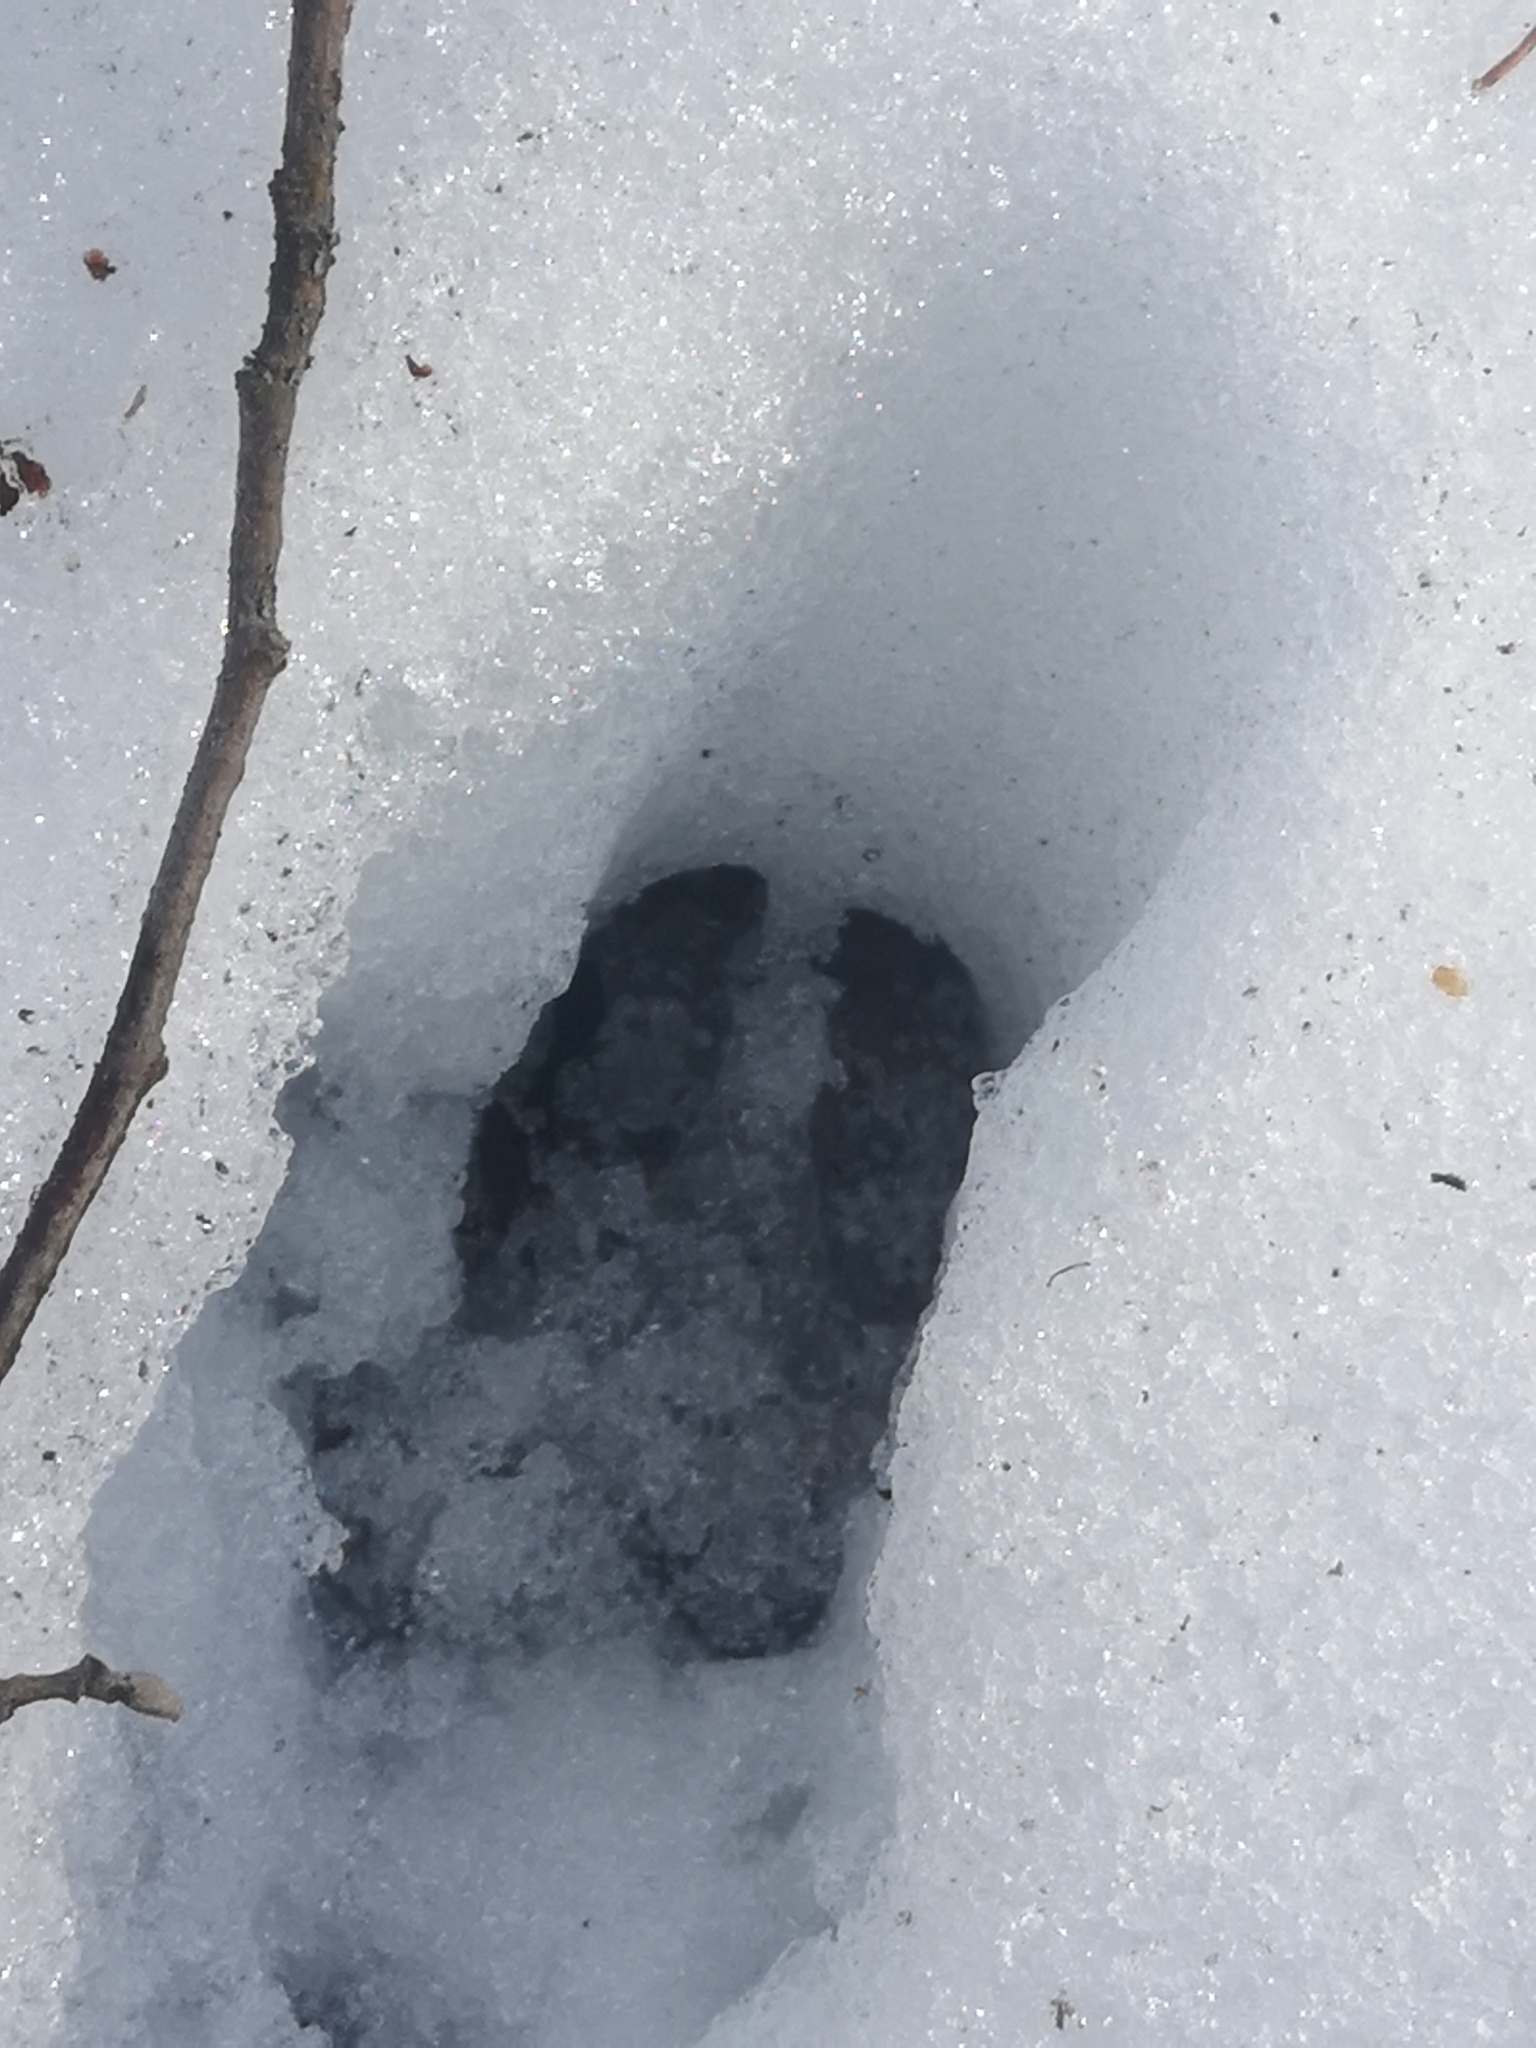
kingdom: Animalia
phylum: Chordata
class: Mammalia
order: Artiodactyla
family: Cervidae
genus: Capreolus
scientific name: Capreolus capreolus
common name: Western roe deer
